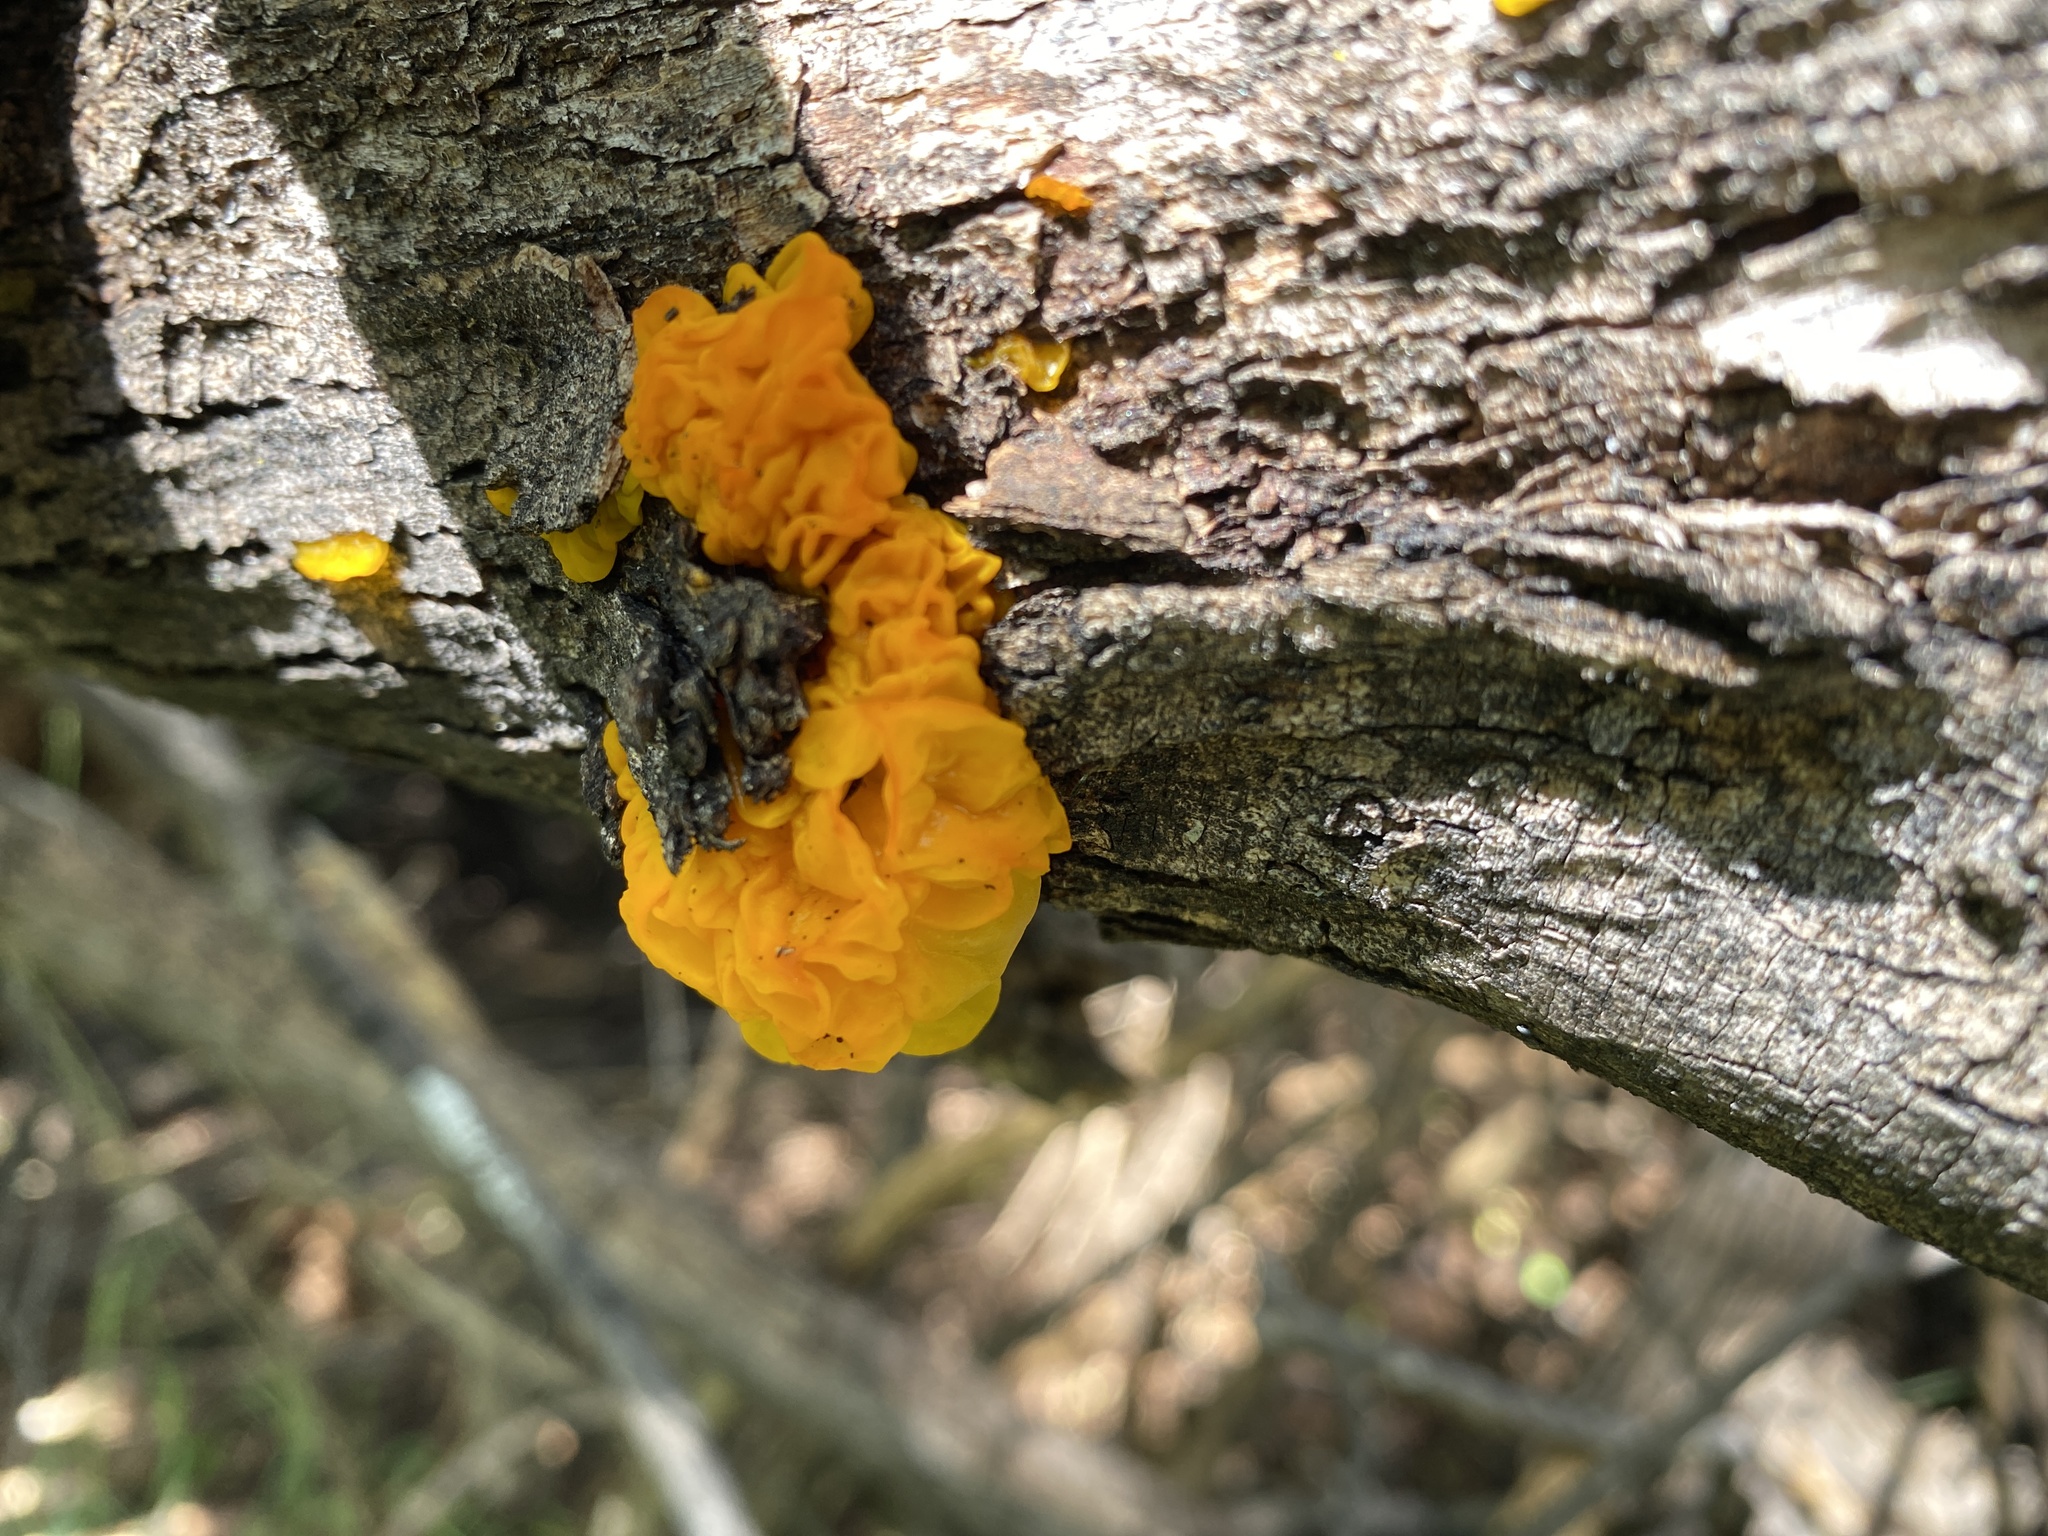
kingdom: Fungi
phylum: Basidiomycota
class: Tremellomycetes
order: Tremellales
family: Tremellaceae
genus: Tremella
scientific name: Tremella mesenterica
